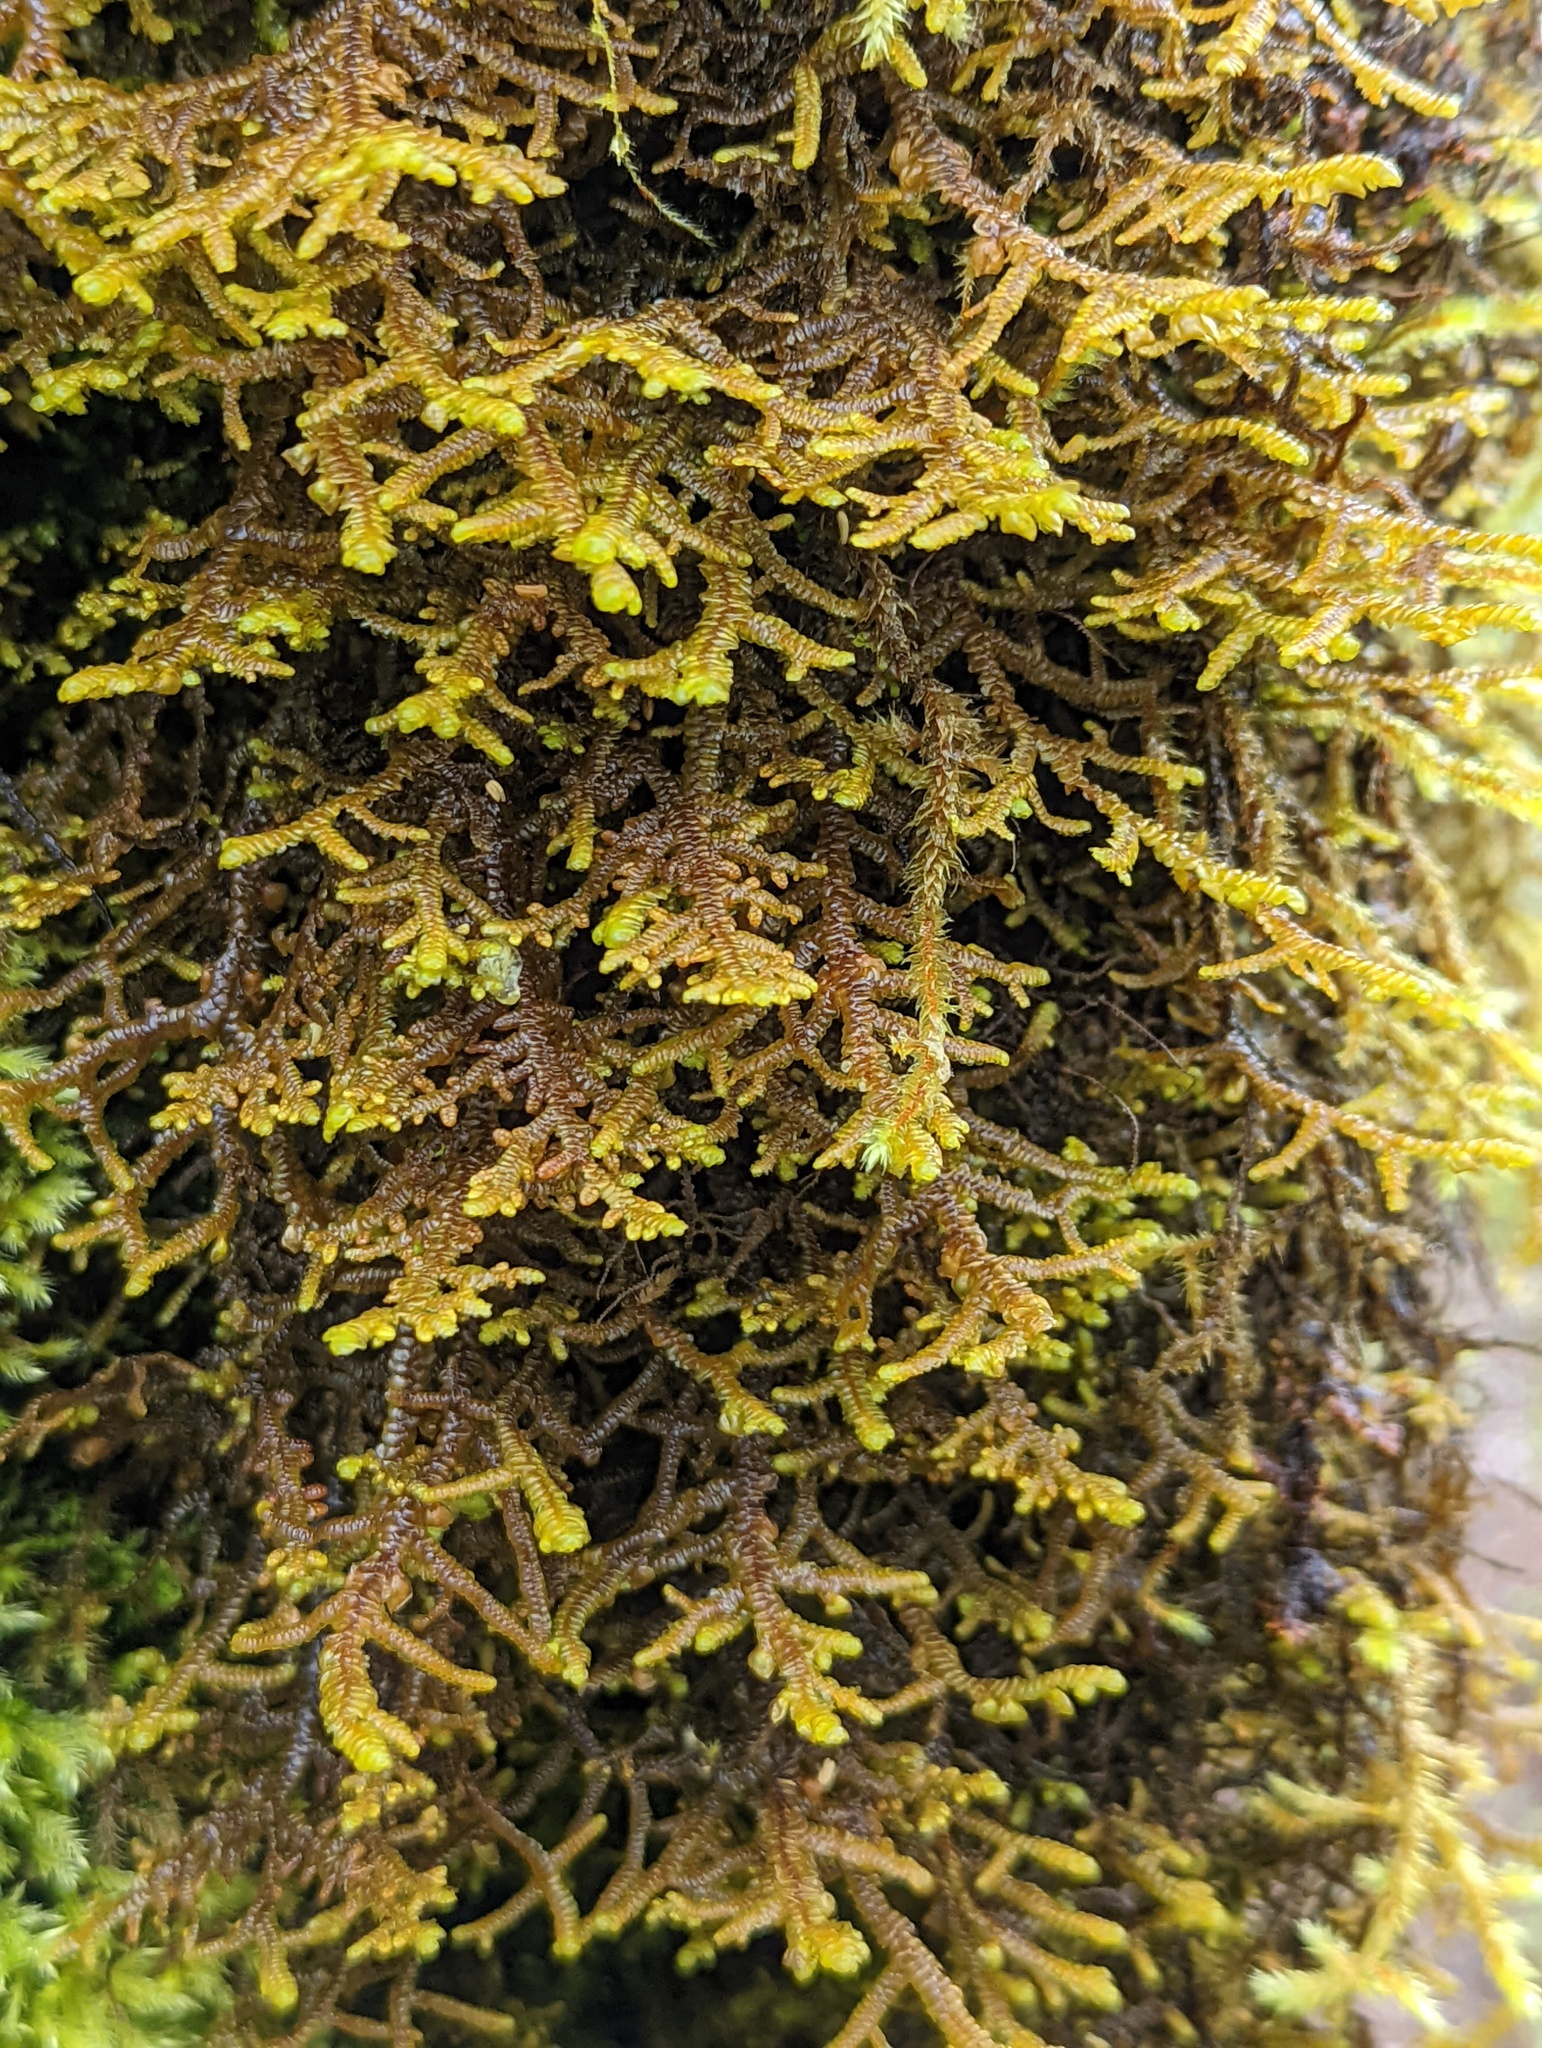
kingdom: Plantae
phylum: Marchantiophyta
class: Jungermanniopsida
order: Porellales
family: Porellaceae
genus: Porella
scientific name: Porella navicularis
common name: Tree ruffle liverwort
